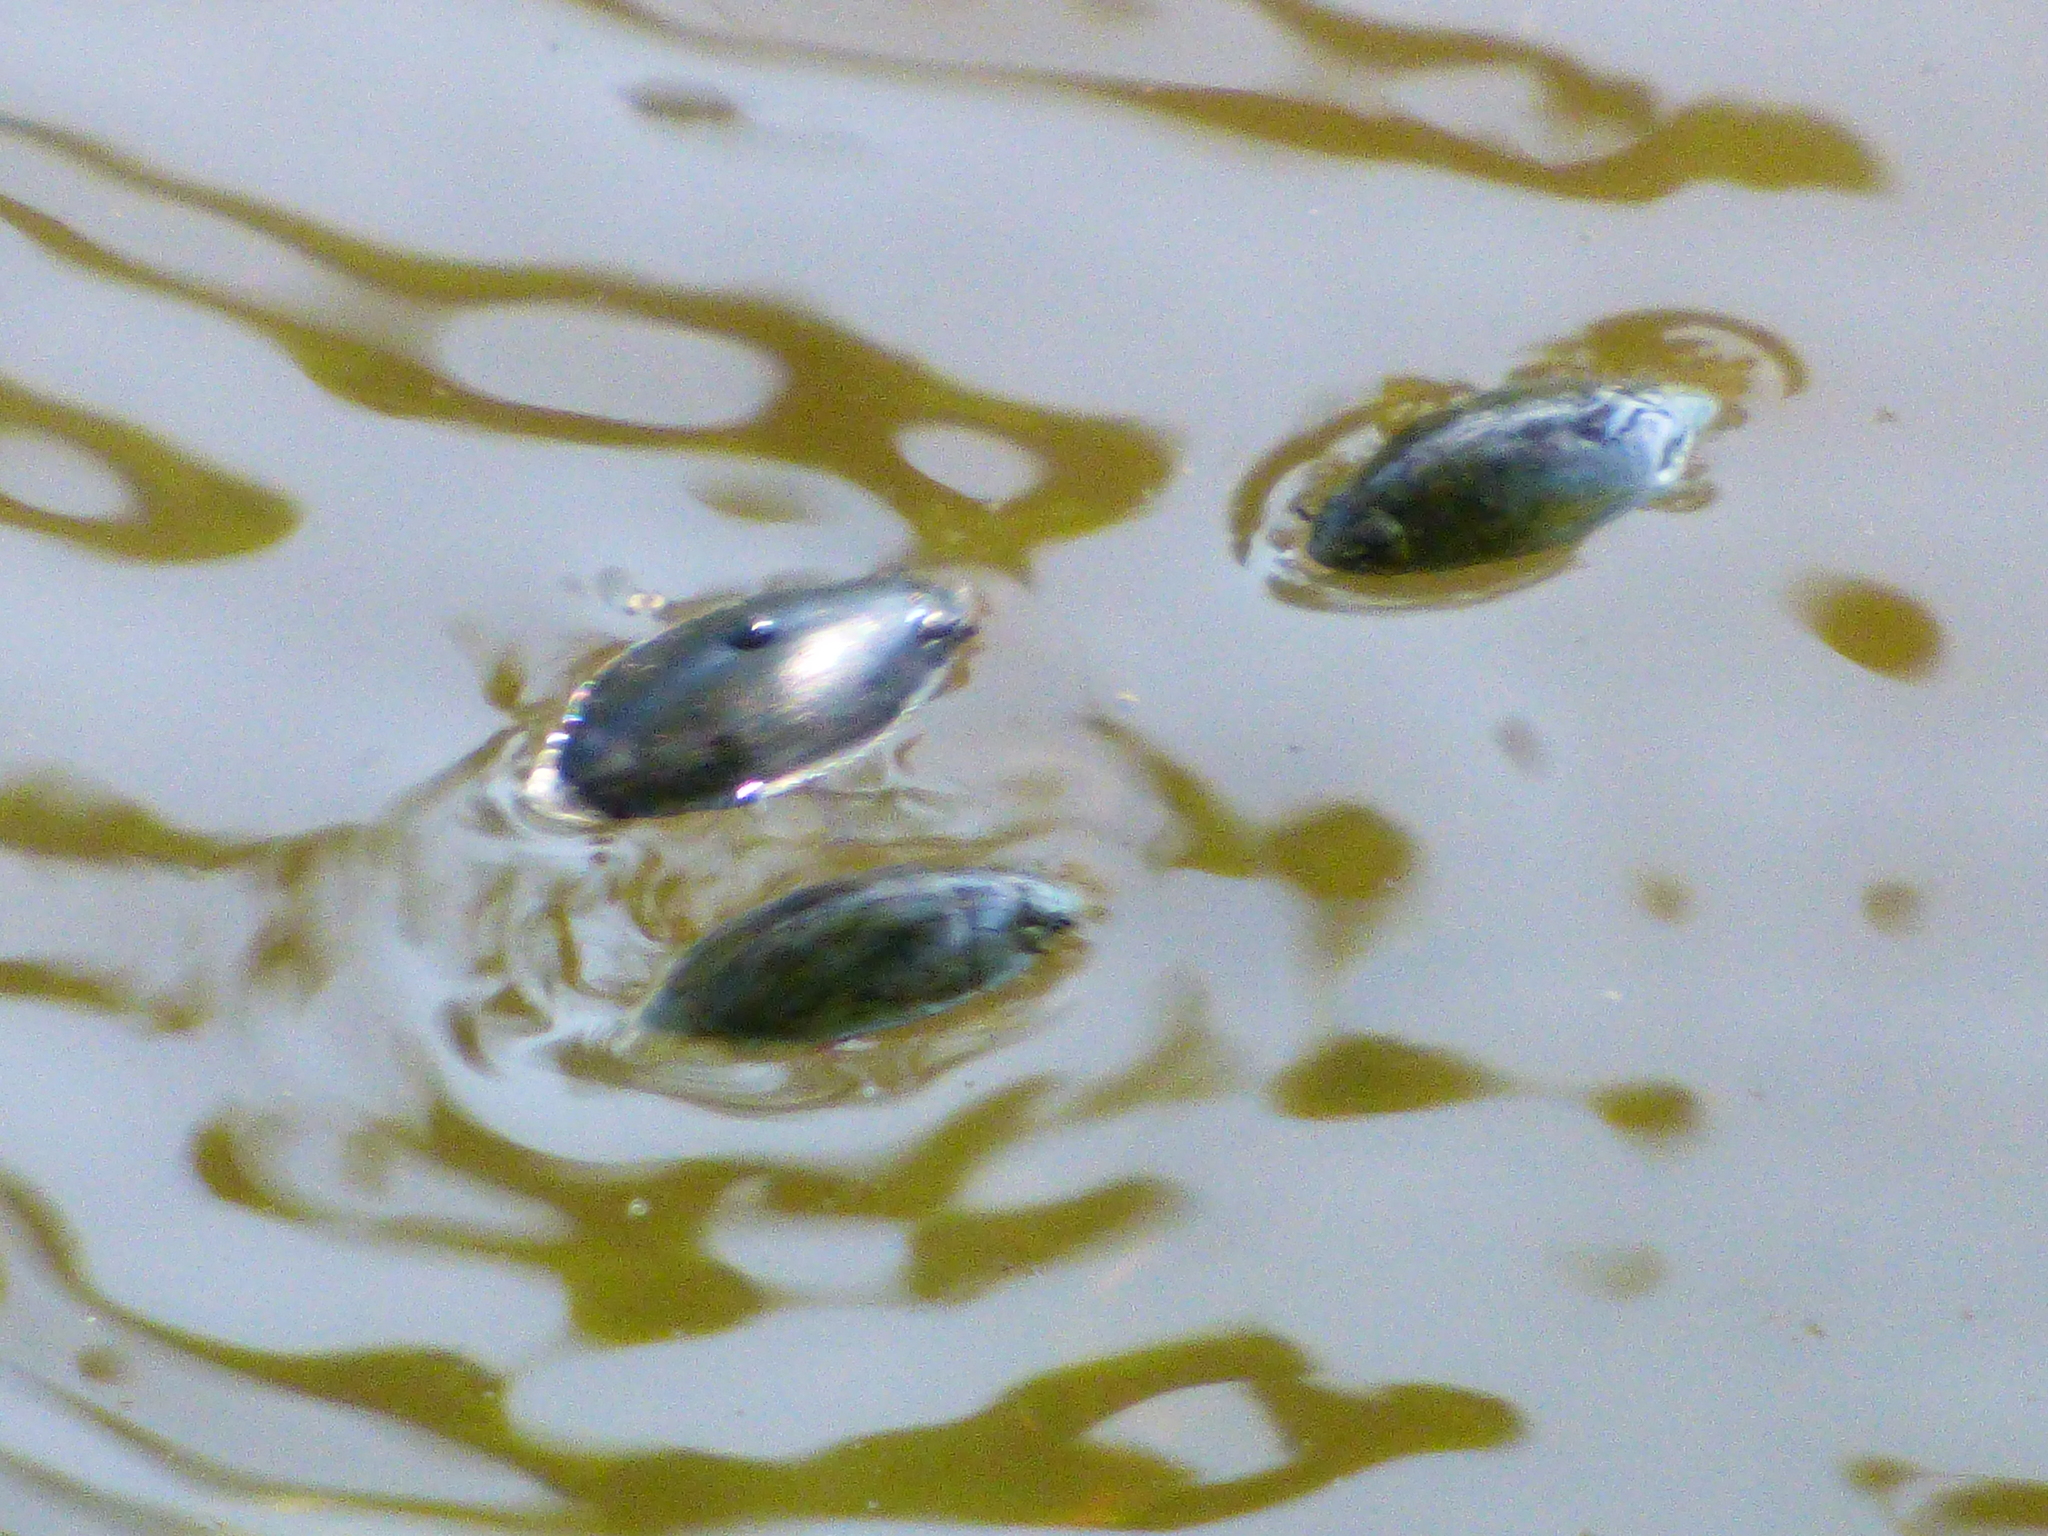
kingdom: Animalia
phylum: Arthropoda
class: Insecta
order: Coleoptera
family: Gyrinidae
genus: Dineutus
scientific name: Dineutus
